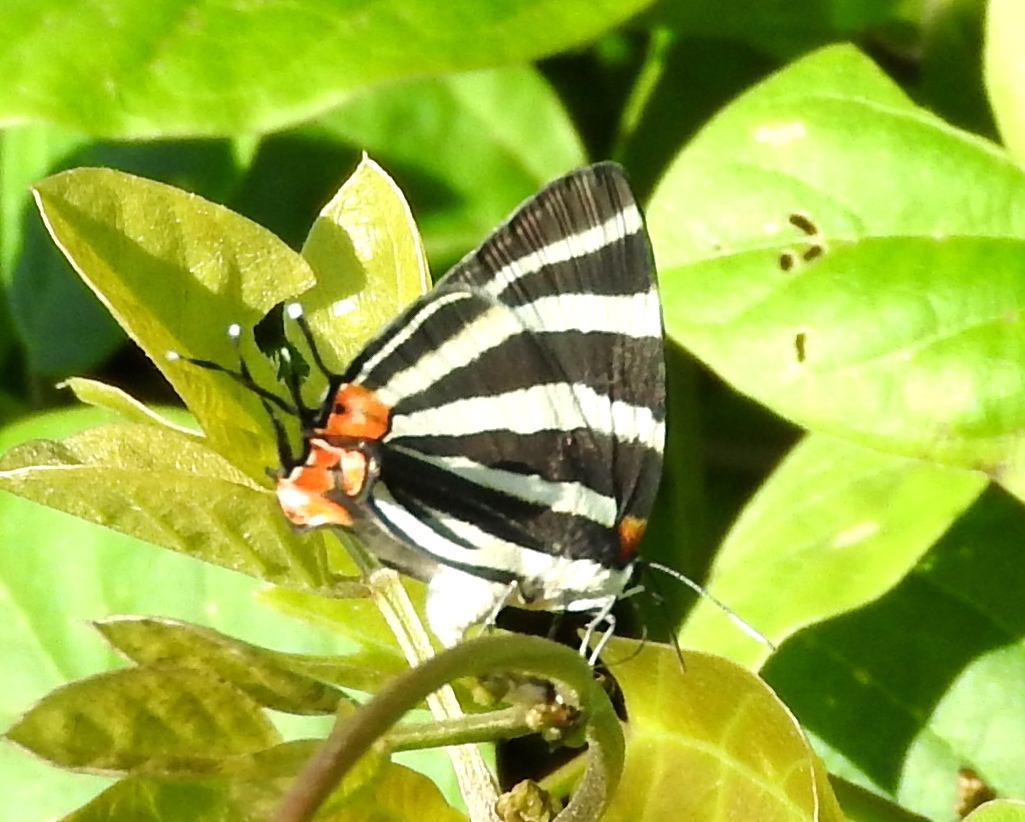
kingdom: Animalia
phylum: Arthropoda
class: Insecta
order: Lepidoptera
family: Lycaenidae
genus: Thecla
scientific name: Thecla bathildis
